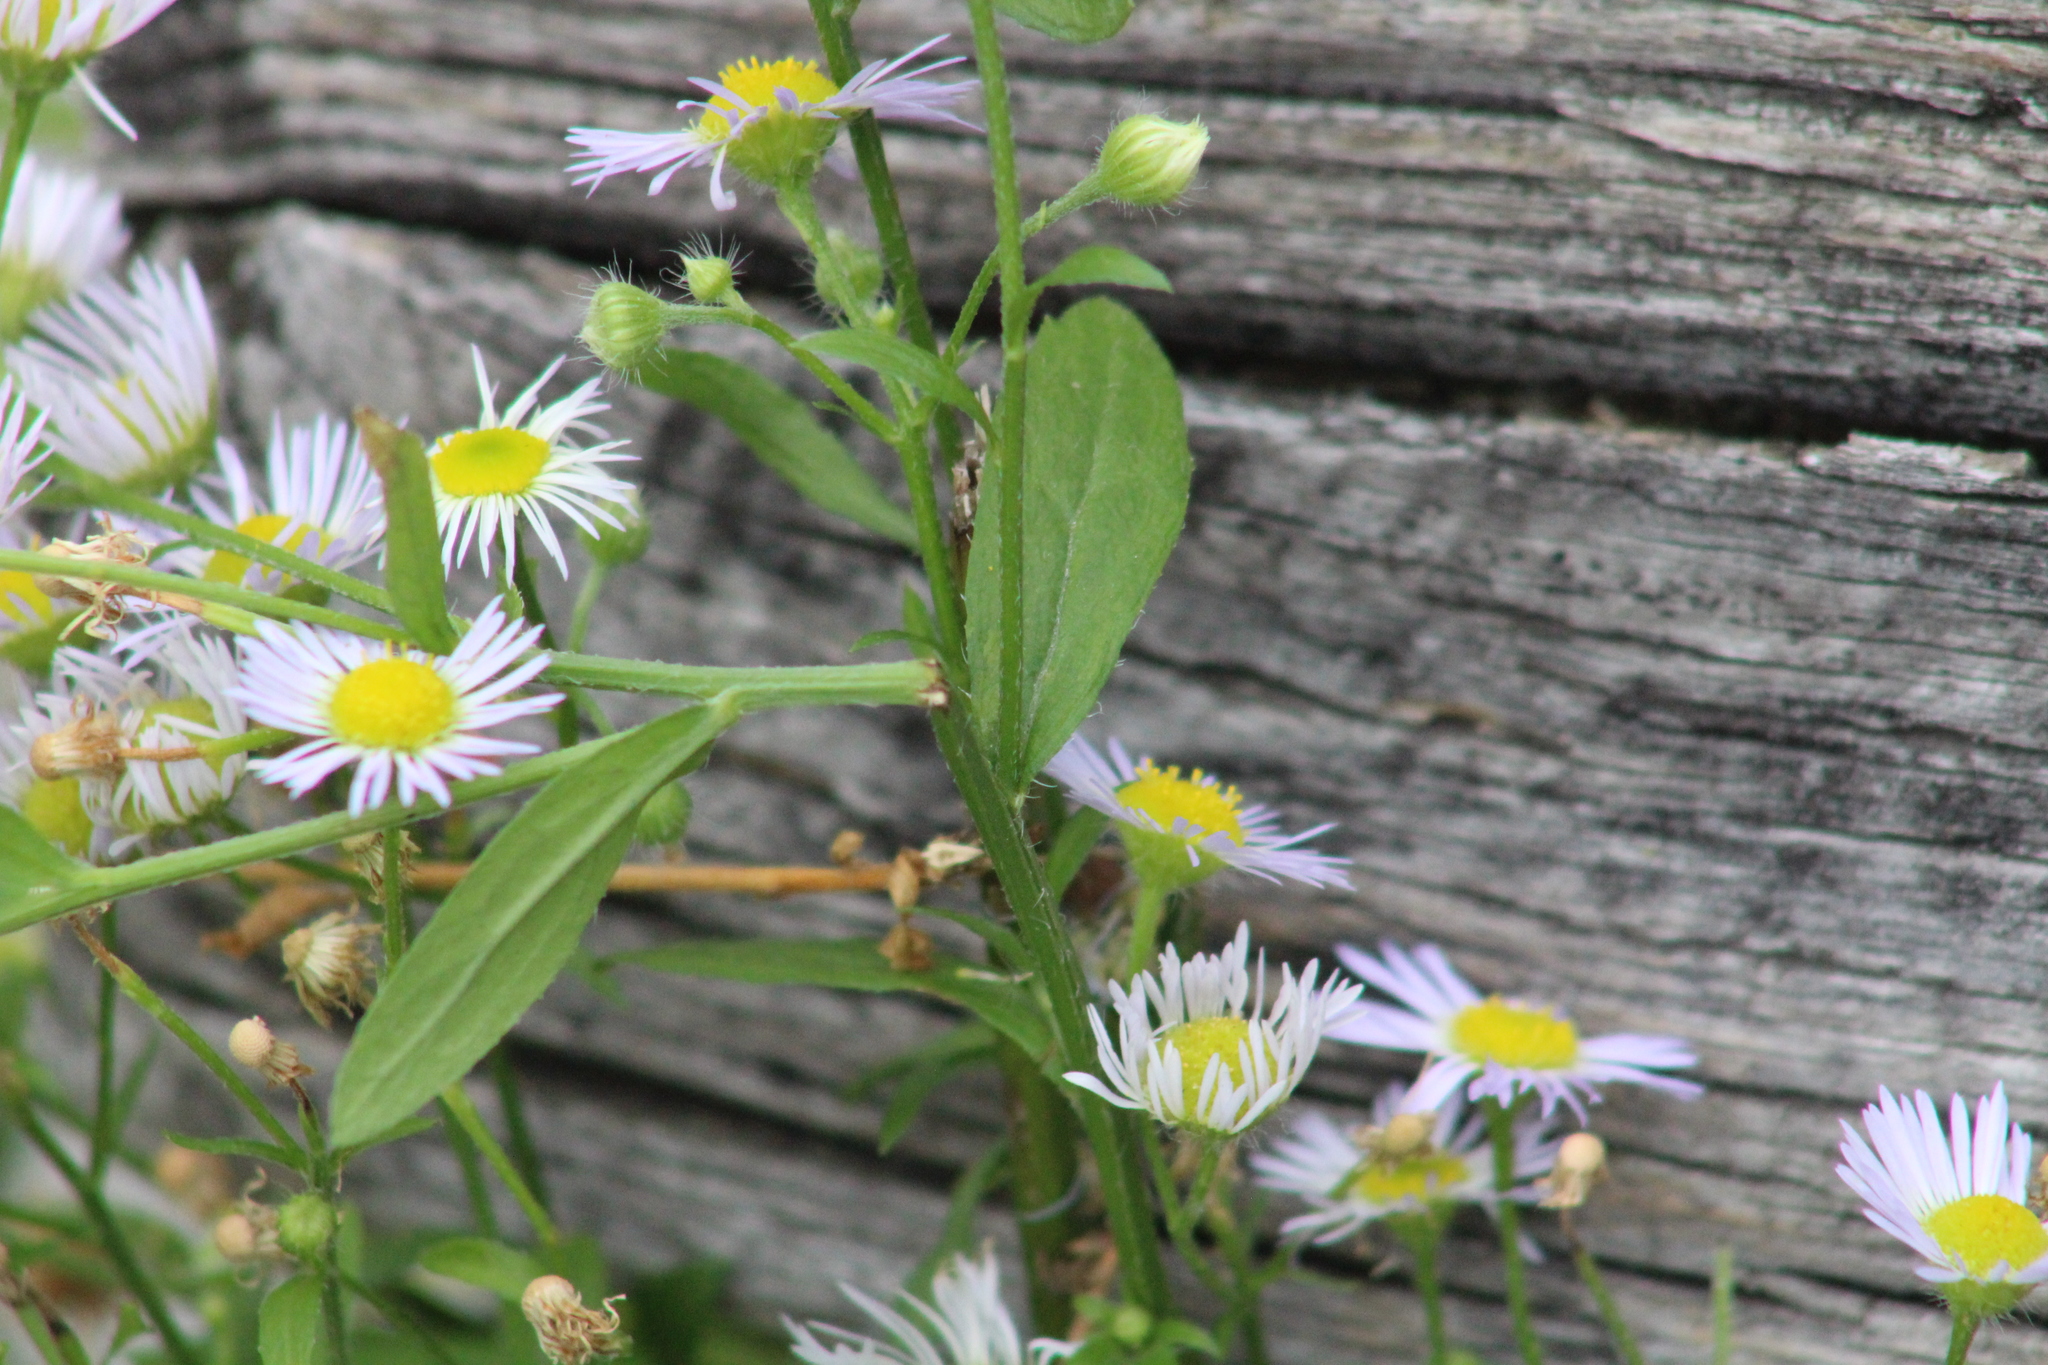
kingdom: Plantae
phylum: Tracheophyta
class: Magnoliopsida
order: Asterales
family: Asteraceae
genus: Erigeron
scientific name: Erigeron annuus
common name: Tall fleabane
